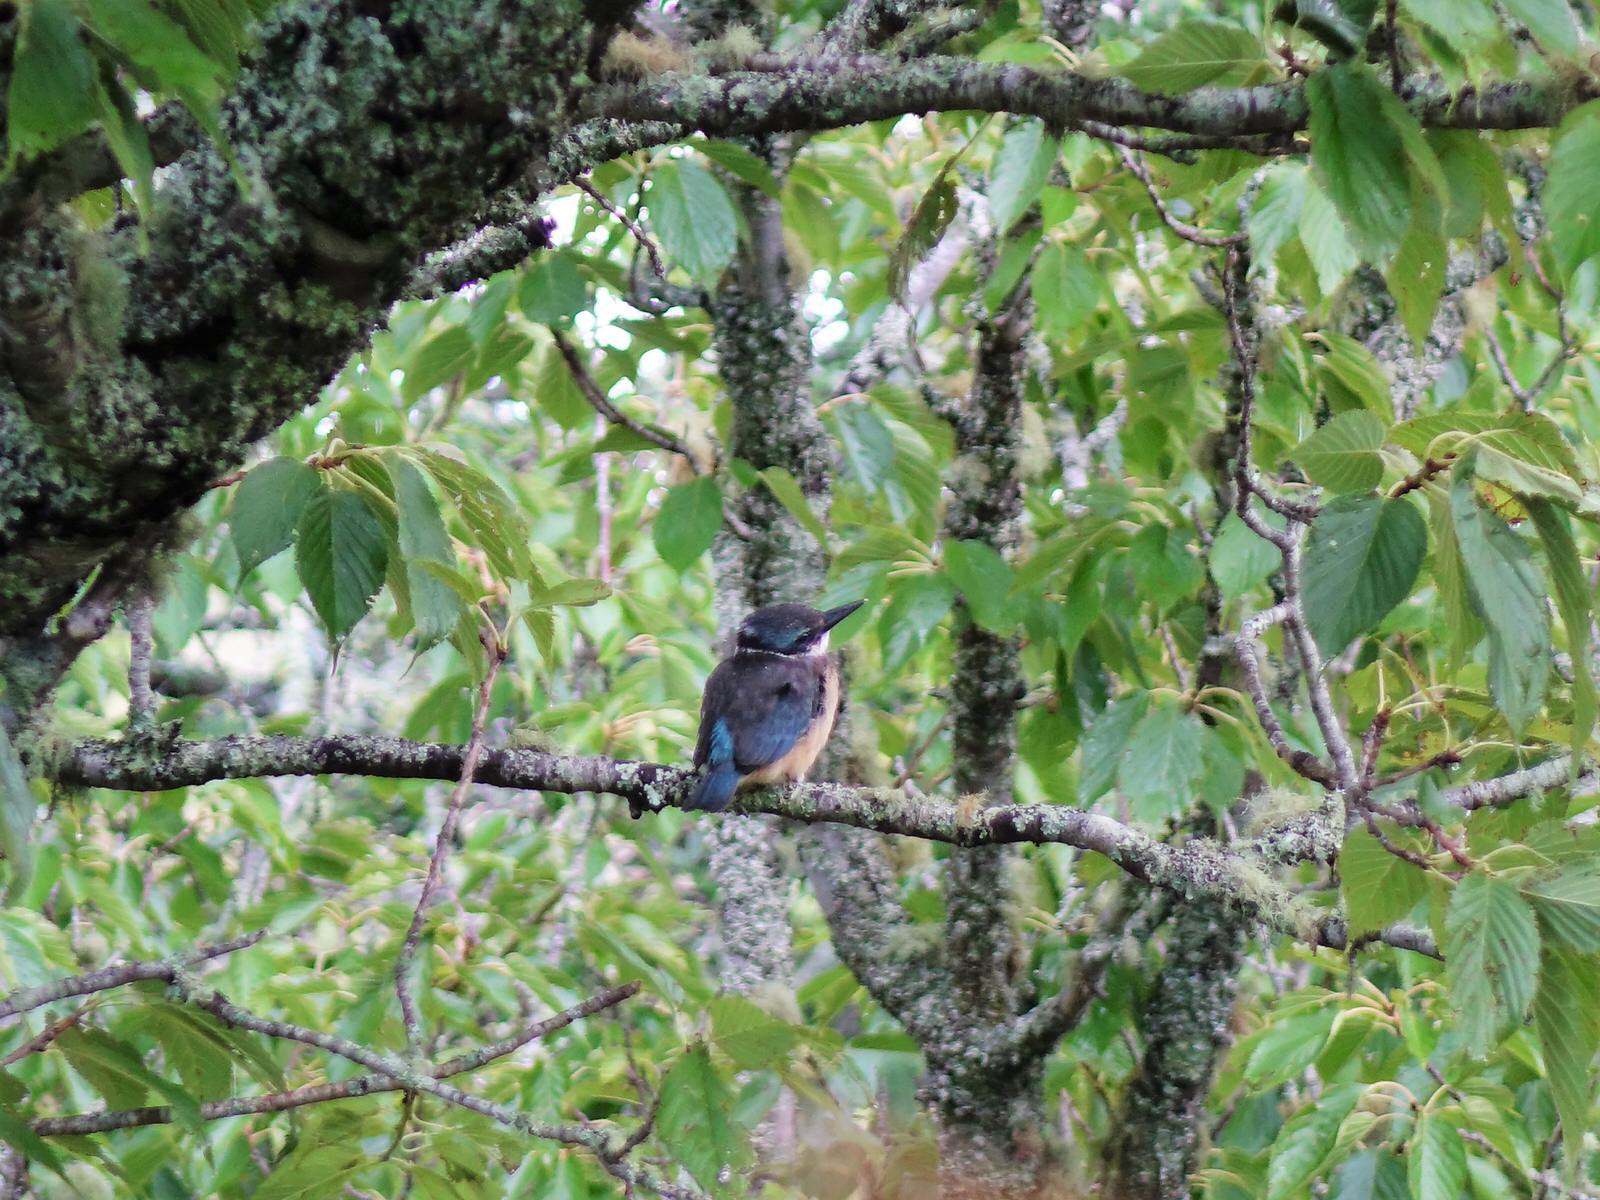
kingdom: Animalia
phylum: Chordata
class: Aves
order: Coraciiformes
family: Alcedinidae
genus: Todiramphus
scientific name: Todiramphus sanctus
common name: Sacred kingfisher
